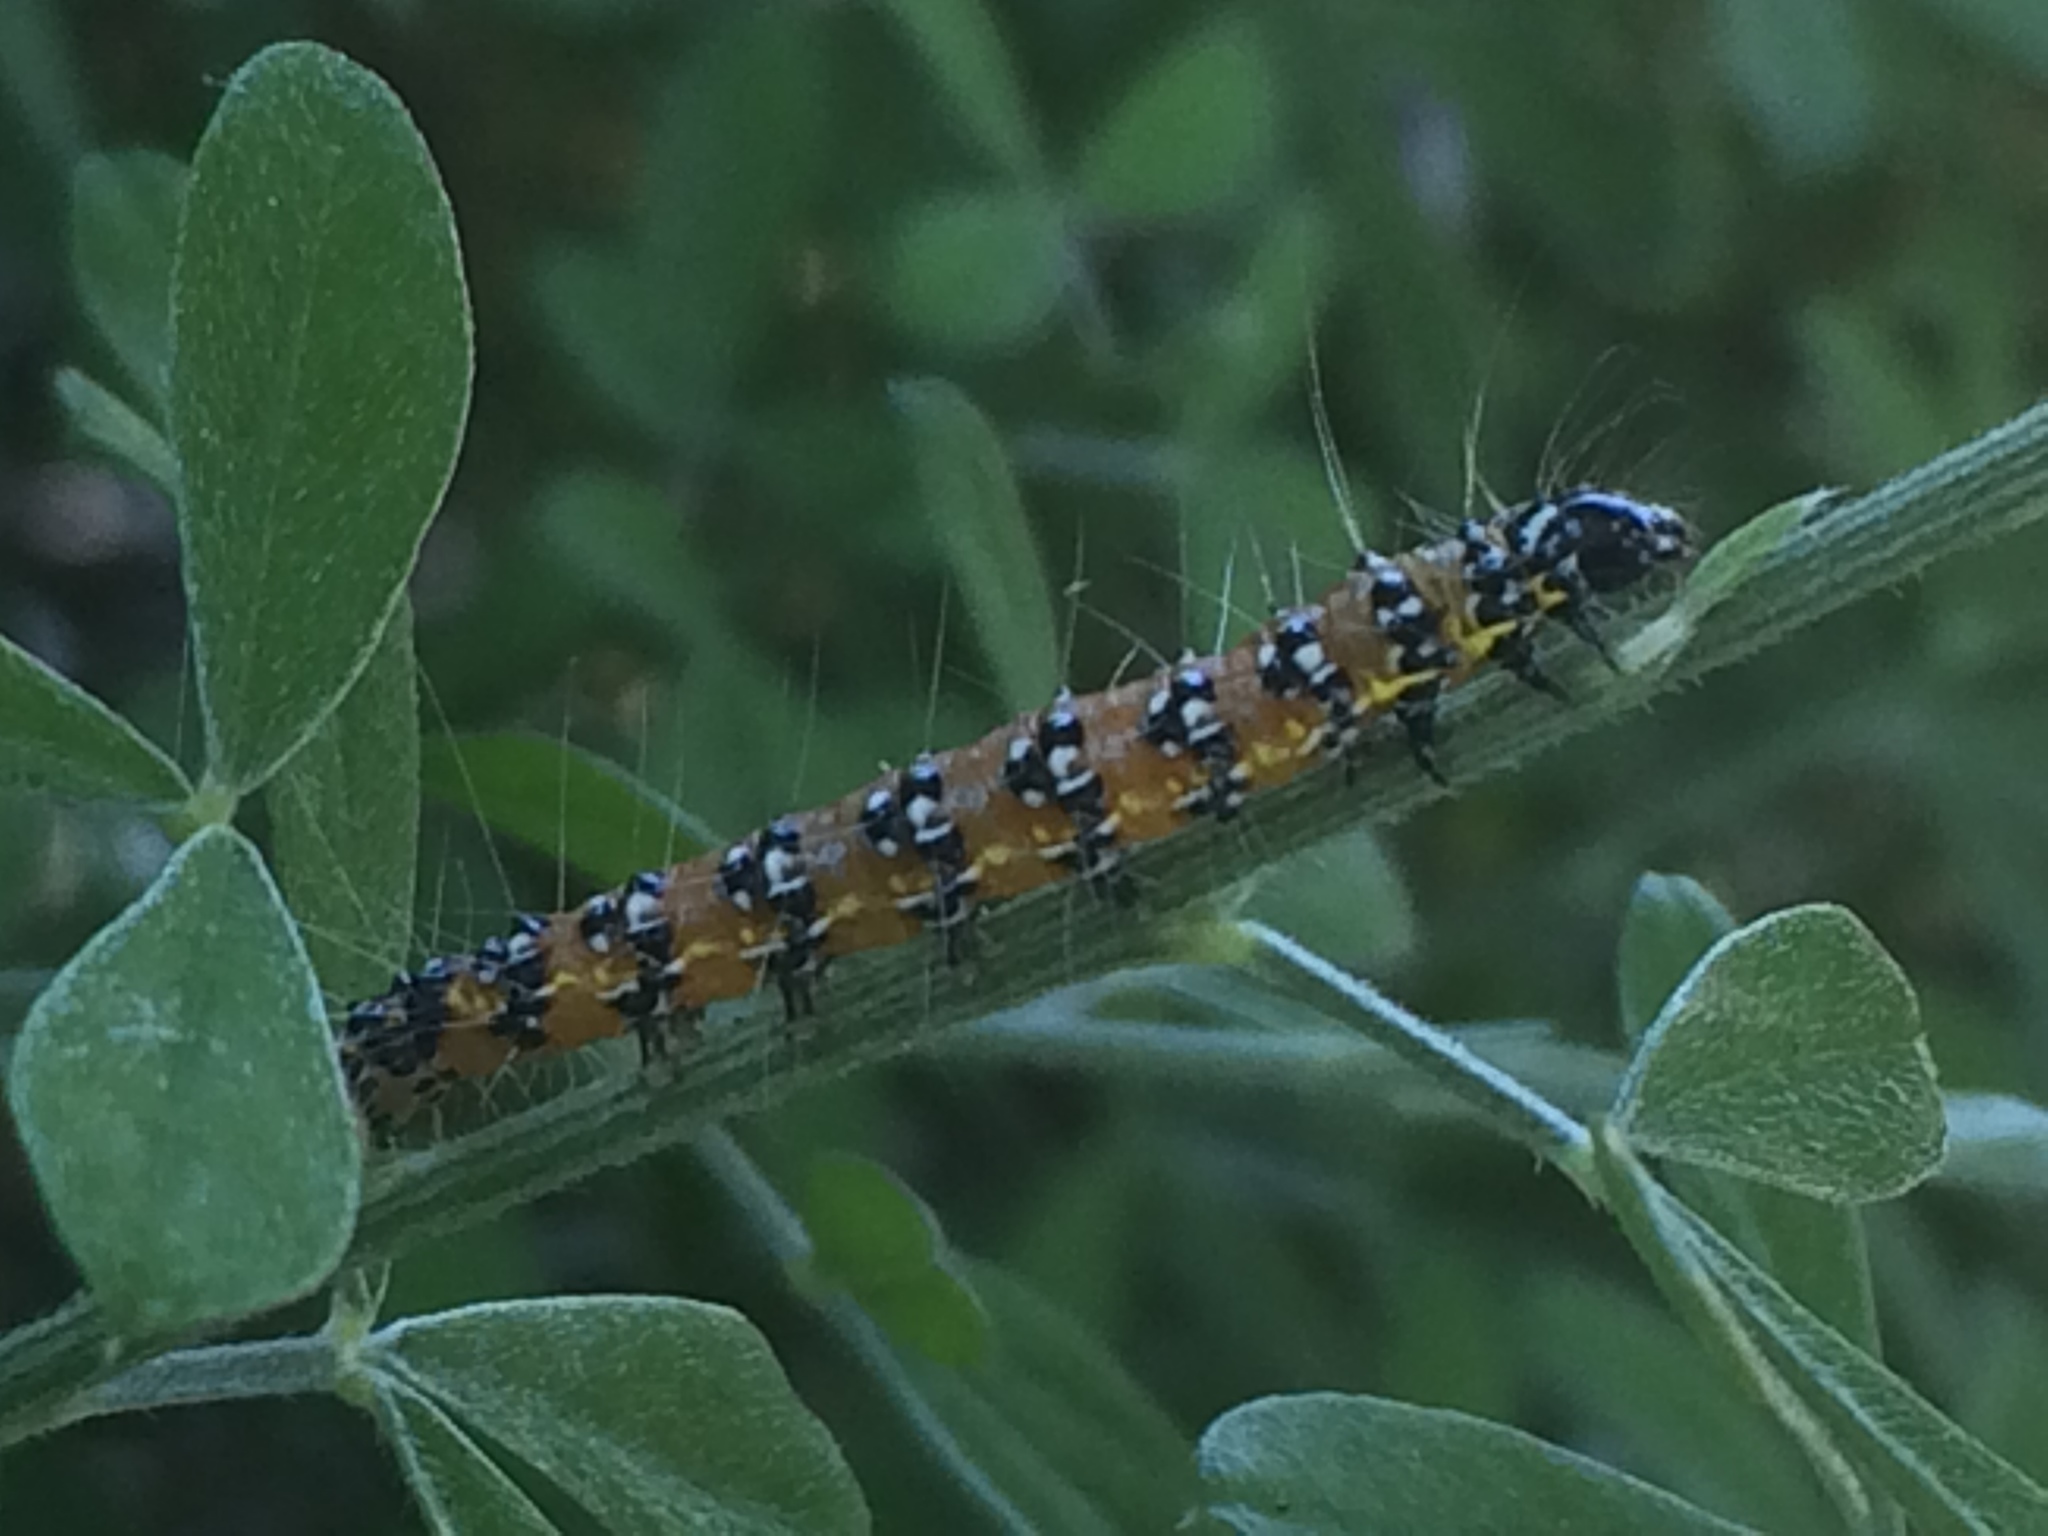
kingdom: Animalia
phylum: Arthropoda
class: Insecta
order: Lepidoptera
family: Crambidae
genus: Uresiphita
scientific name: Uresiphita reversalis
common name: Genista broom moth
